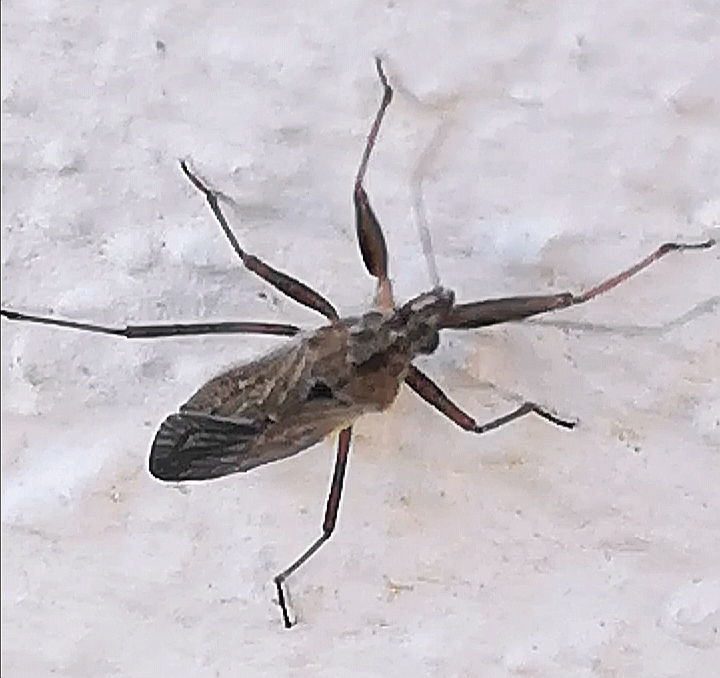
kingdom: Animalia
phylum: Arthropoda
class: Insecta
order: Hemiptera
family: Nabidae
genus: Nabis
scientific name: Nabis
